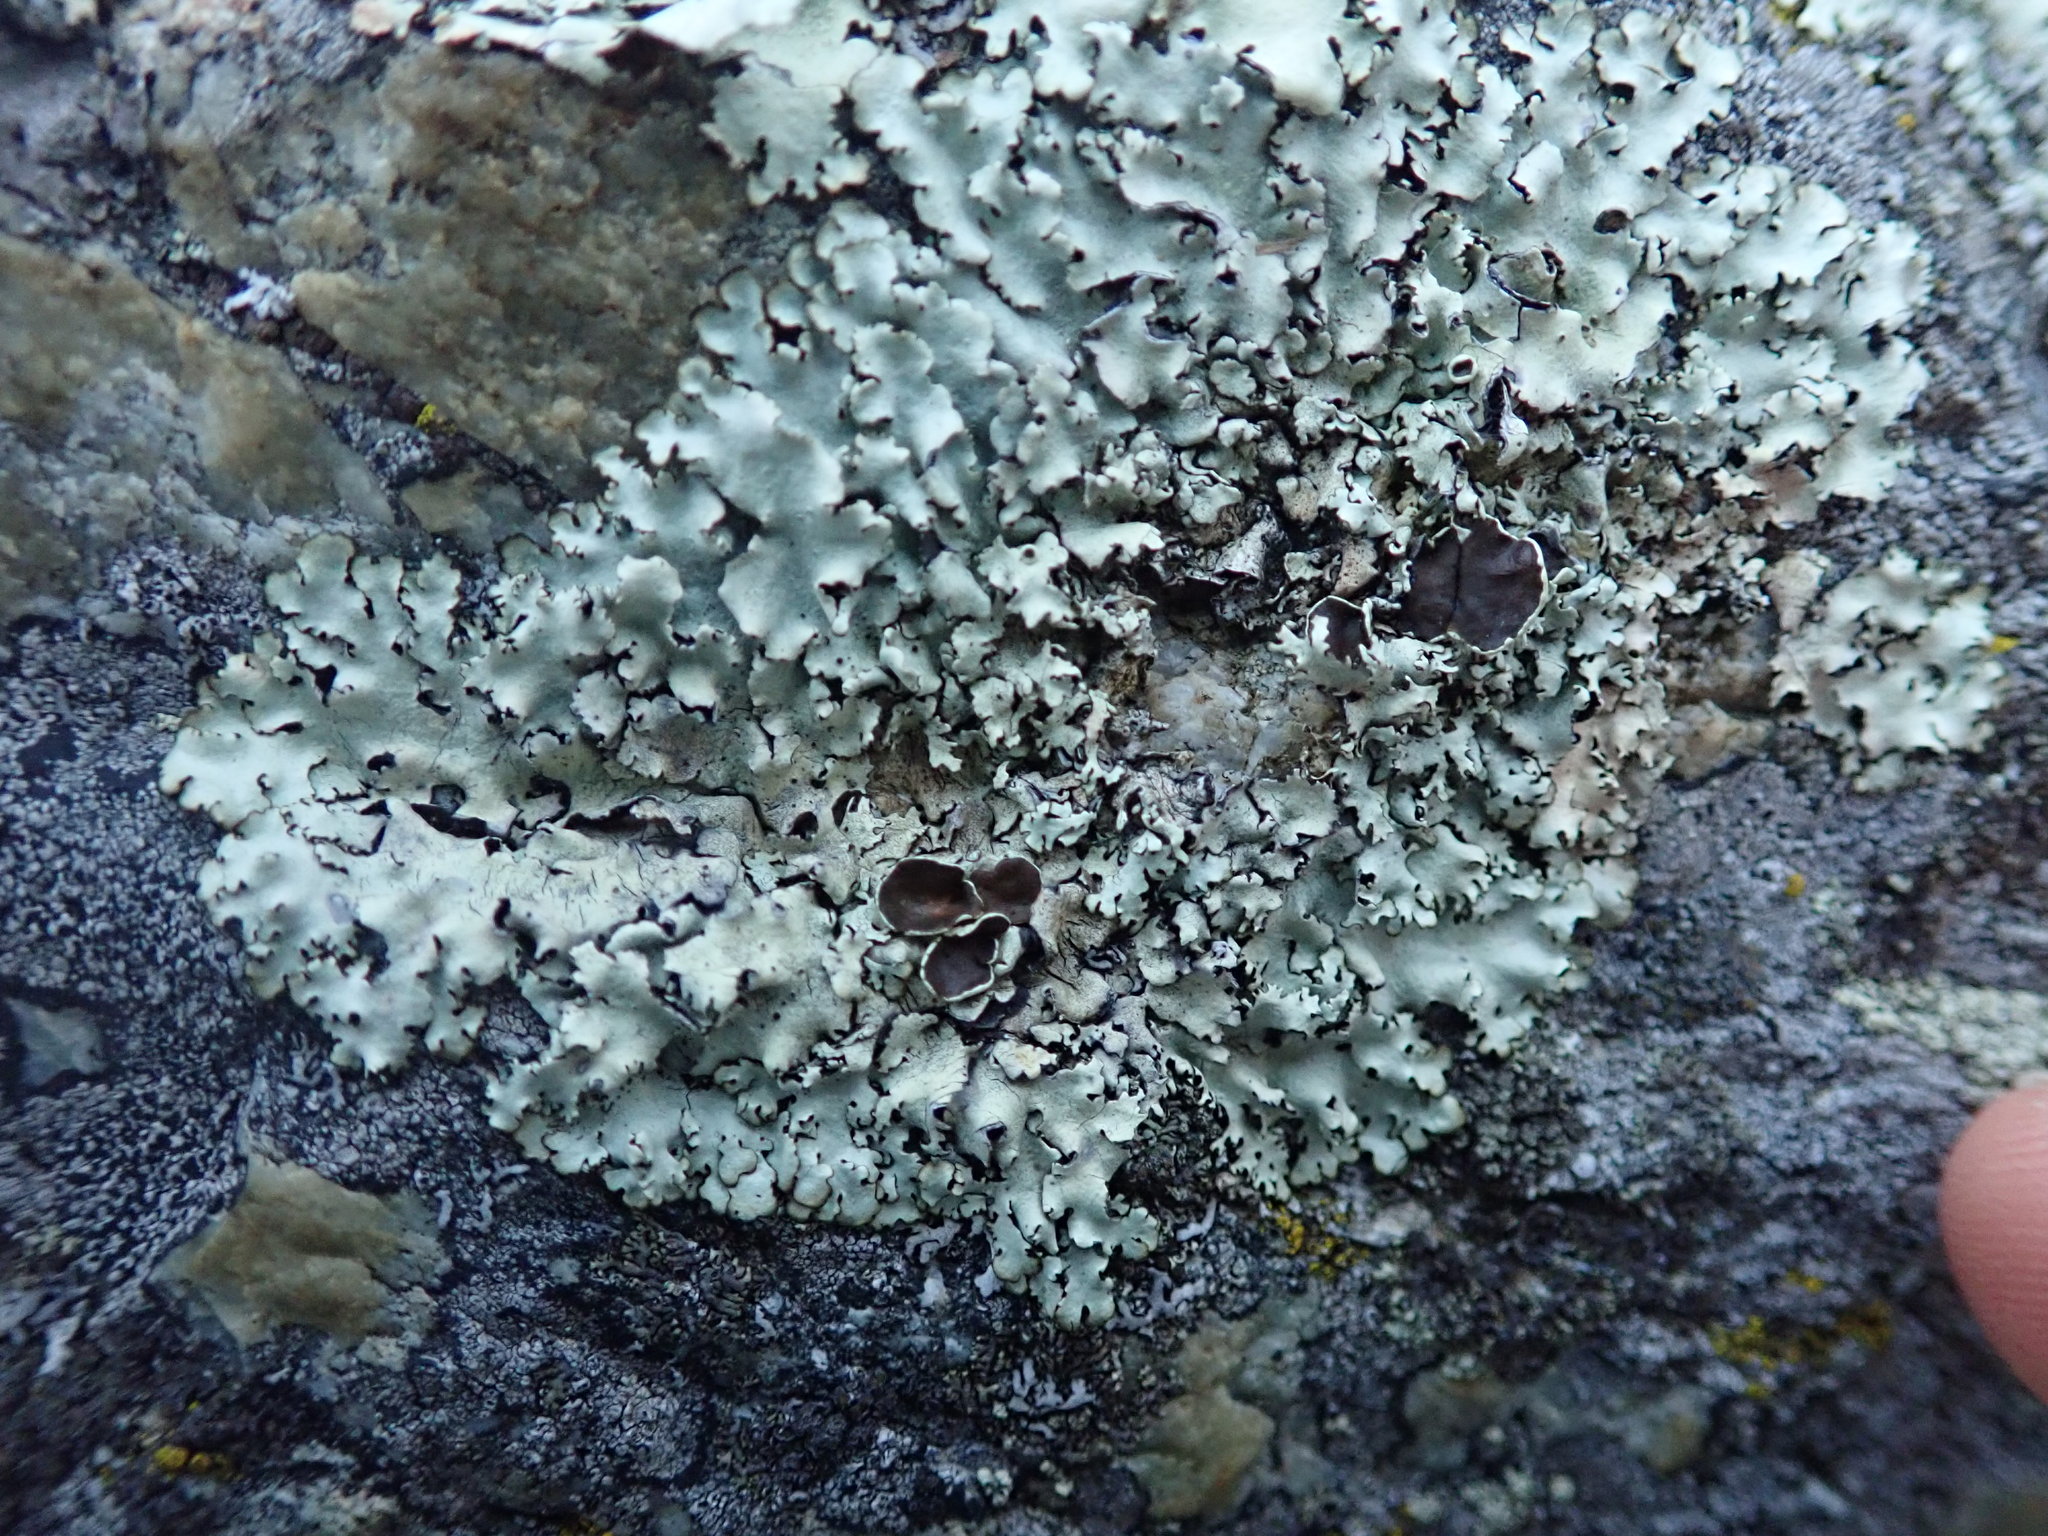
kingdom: Fungi
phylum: Ascomycota
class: Lecanoromycetes
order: Lecanorales
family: Parmeliaceae
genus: Xanthoparmelia
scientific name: Xanthoparmelia cumberlandia
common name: Cumberland rock shield
